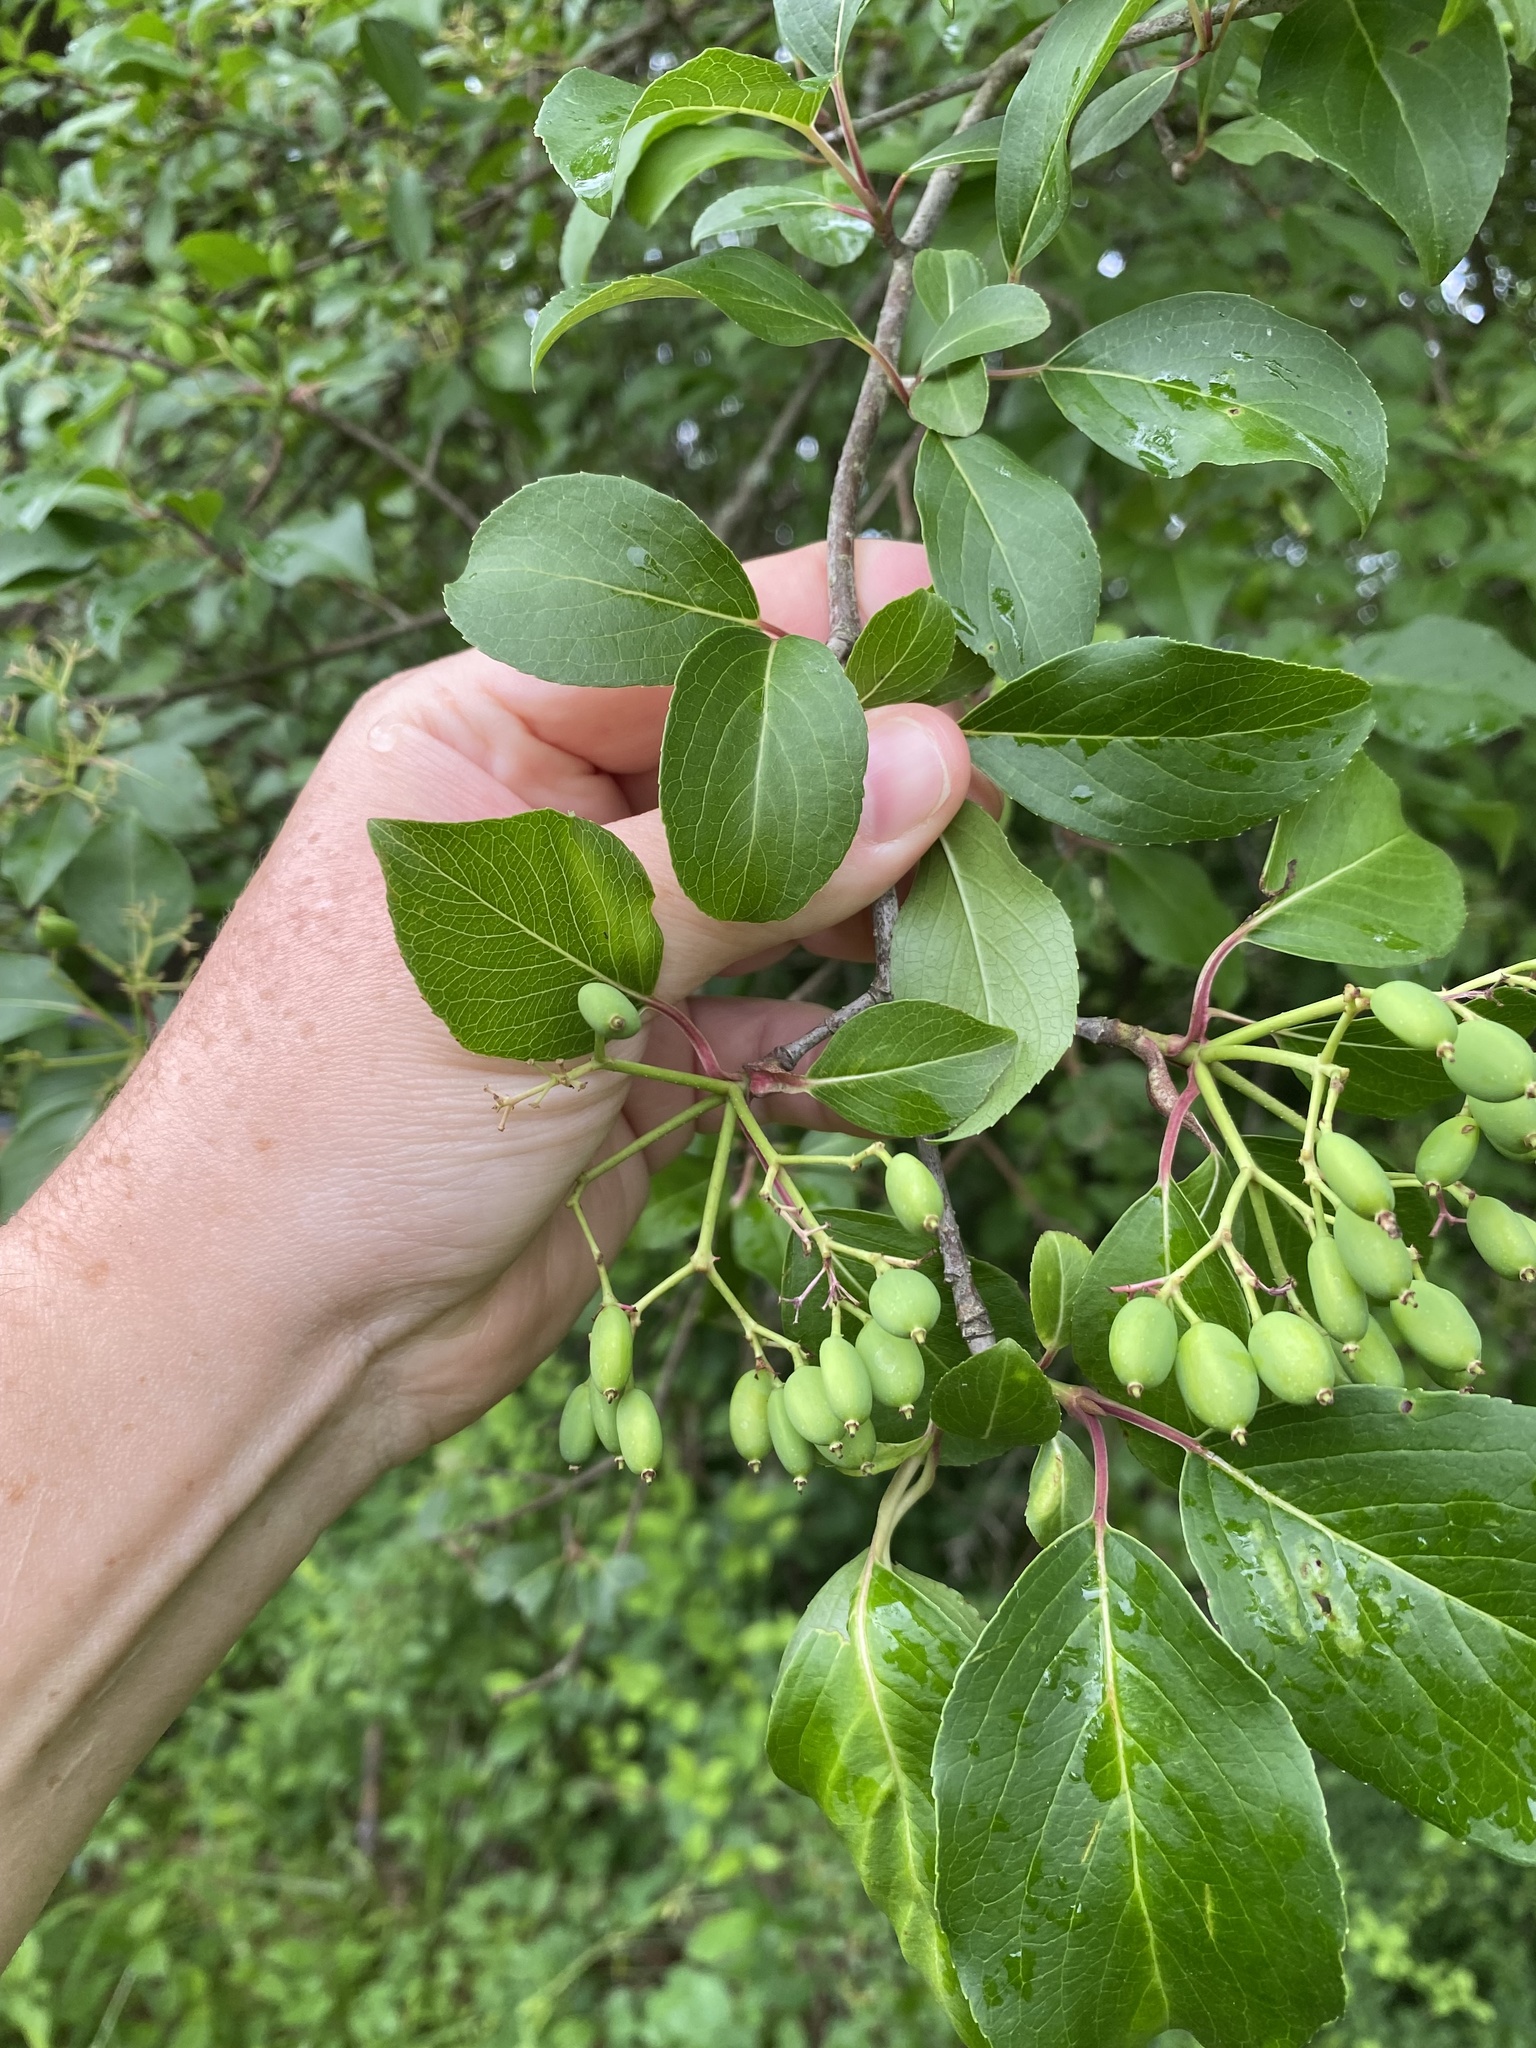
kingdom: Plantae
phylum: Tracheophyta
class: Magnoliopsida
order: Dipsacales
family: Viburnaceae
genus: Viburnum
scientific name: Viburnum prunifolium
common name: Black haw
